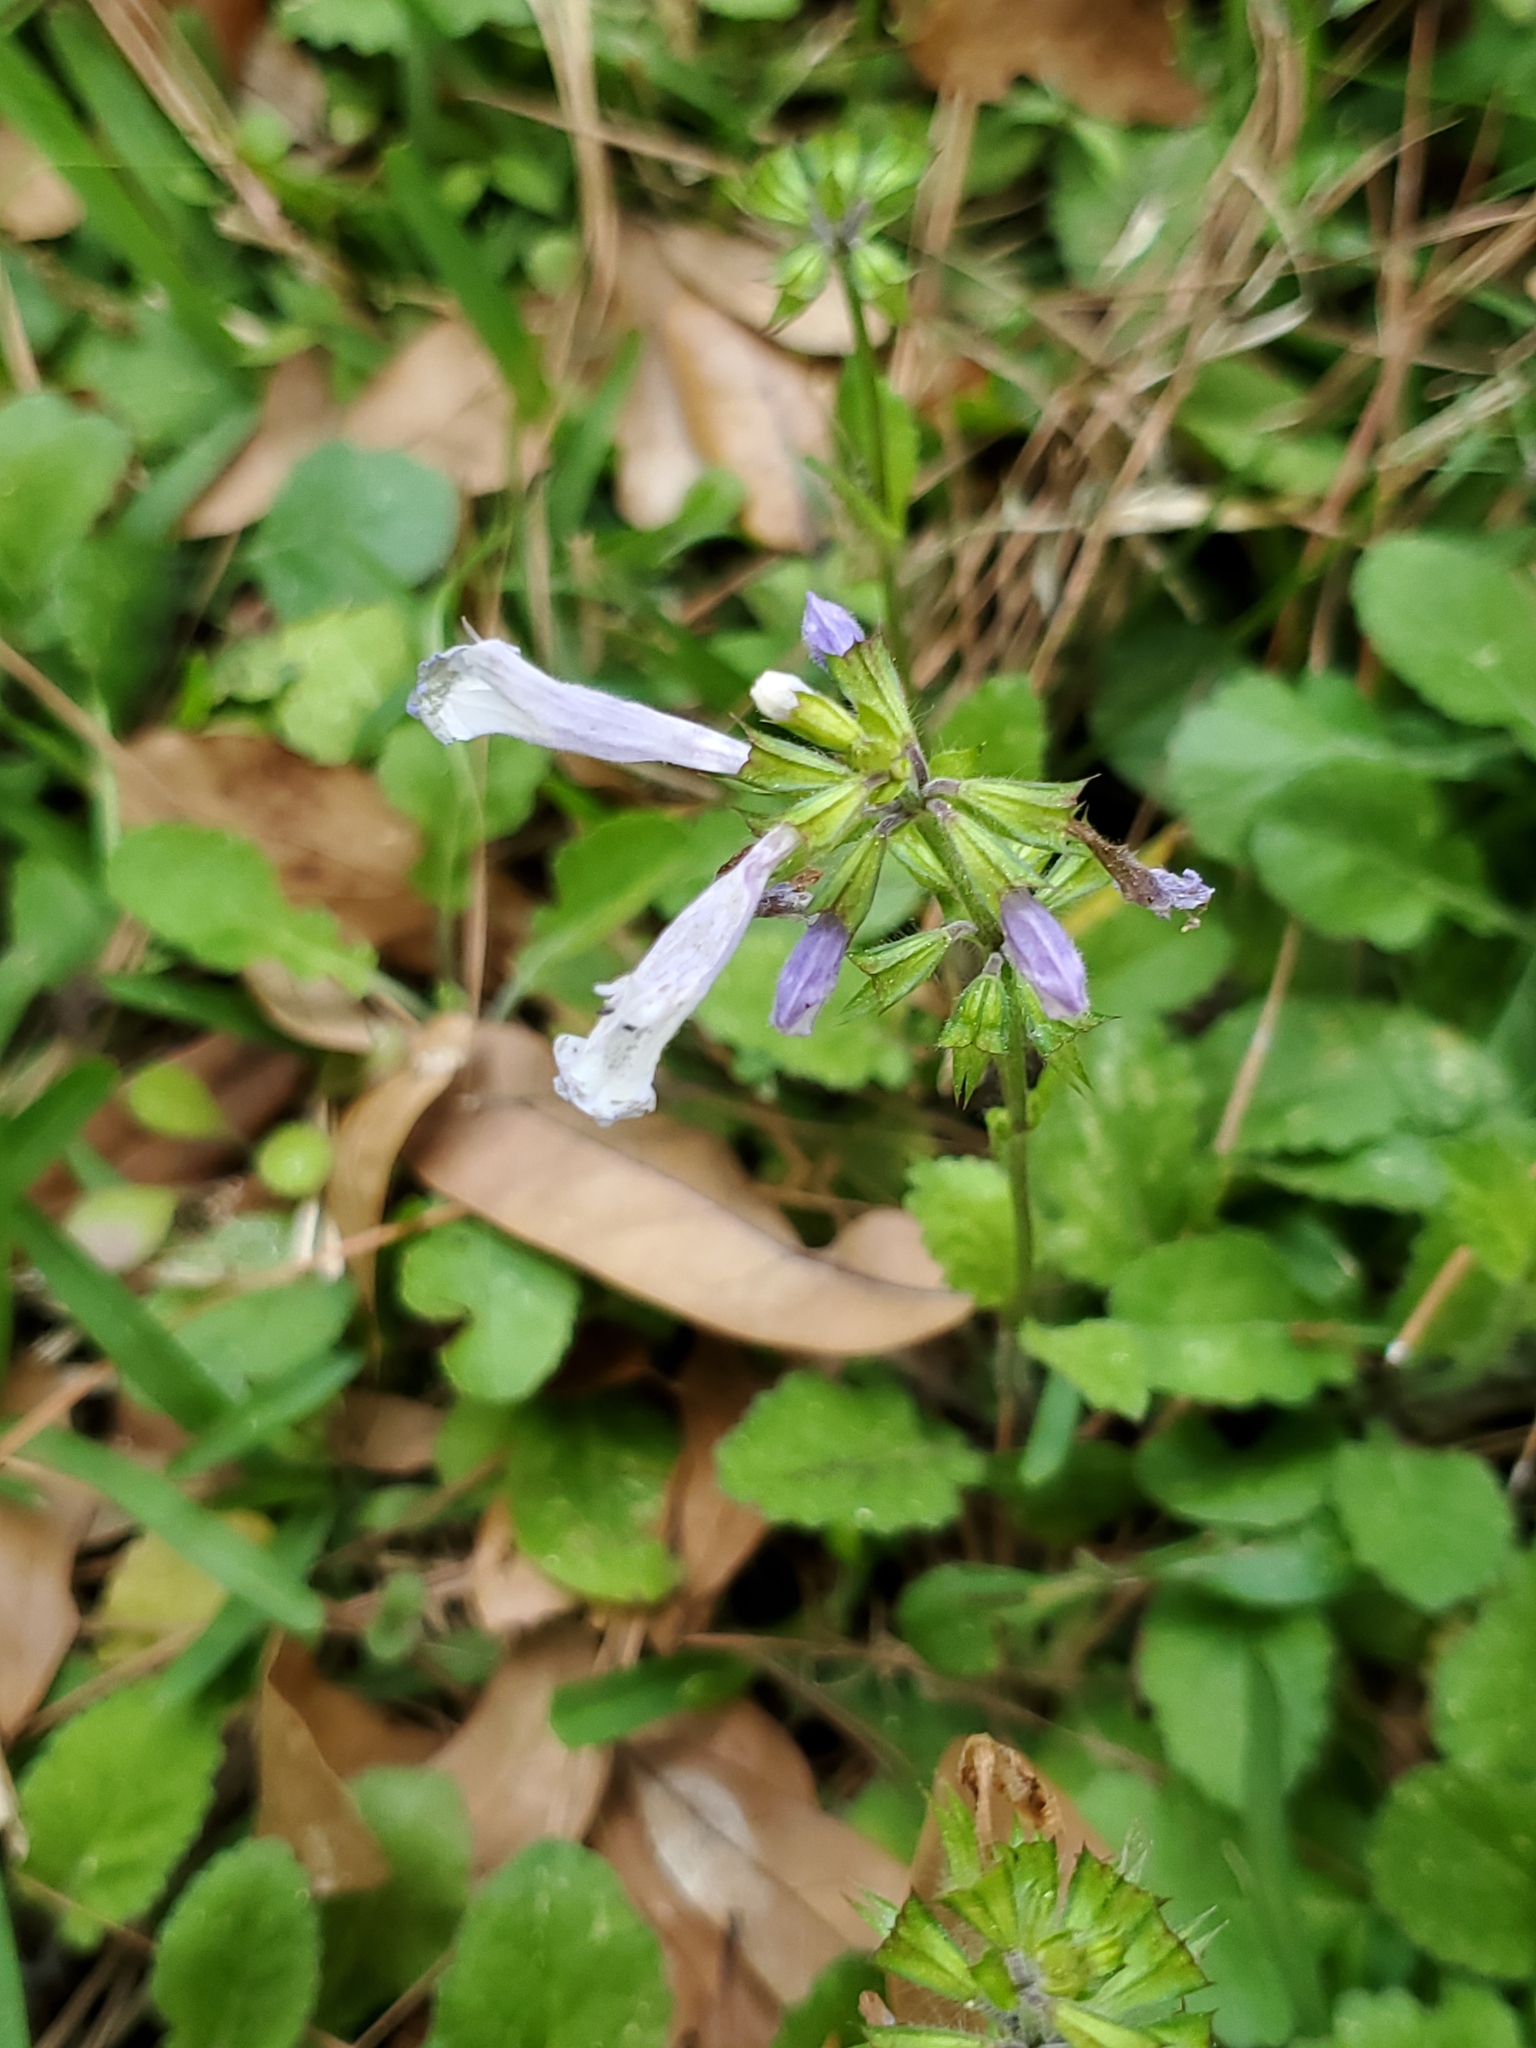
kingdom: Plantae
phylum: Tracheophyta
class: Magnoliopsida
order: Lamiales
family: Lamiaceae
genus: Salvia
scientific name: Salvia lyrata
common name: Cancerweed
